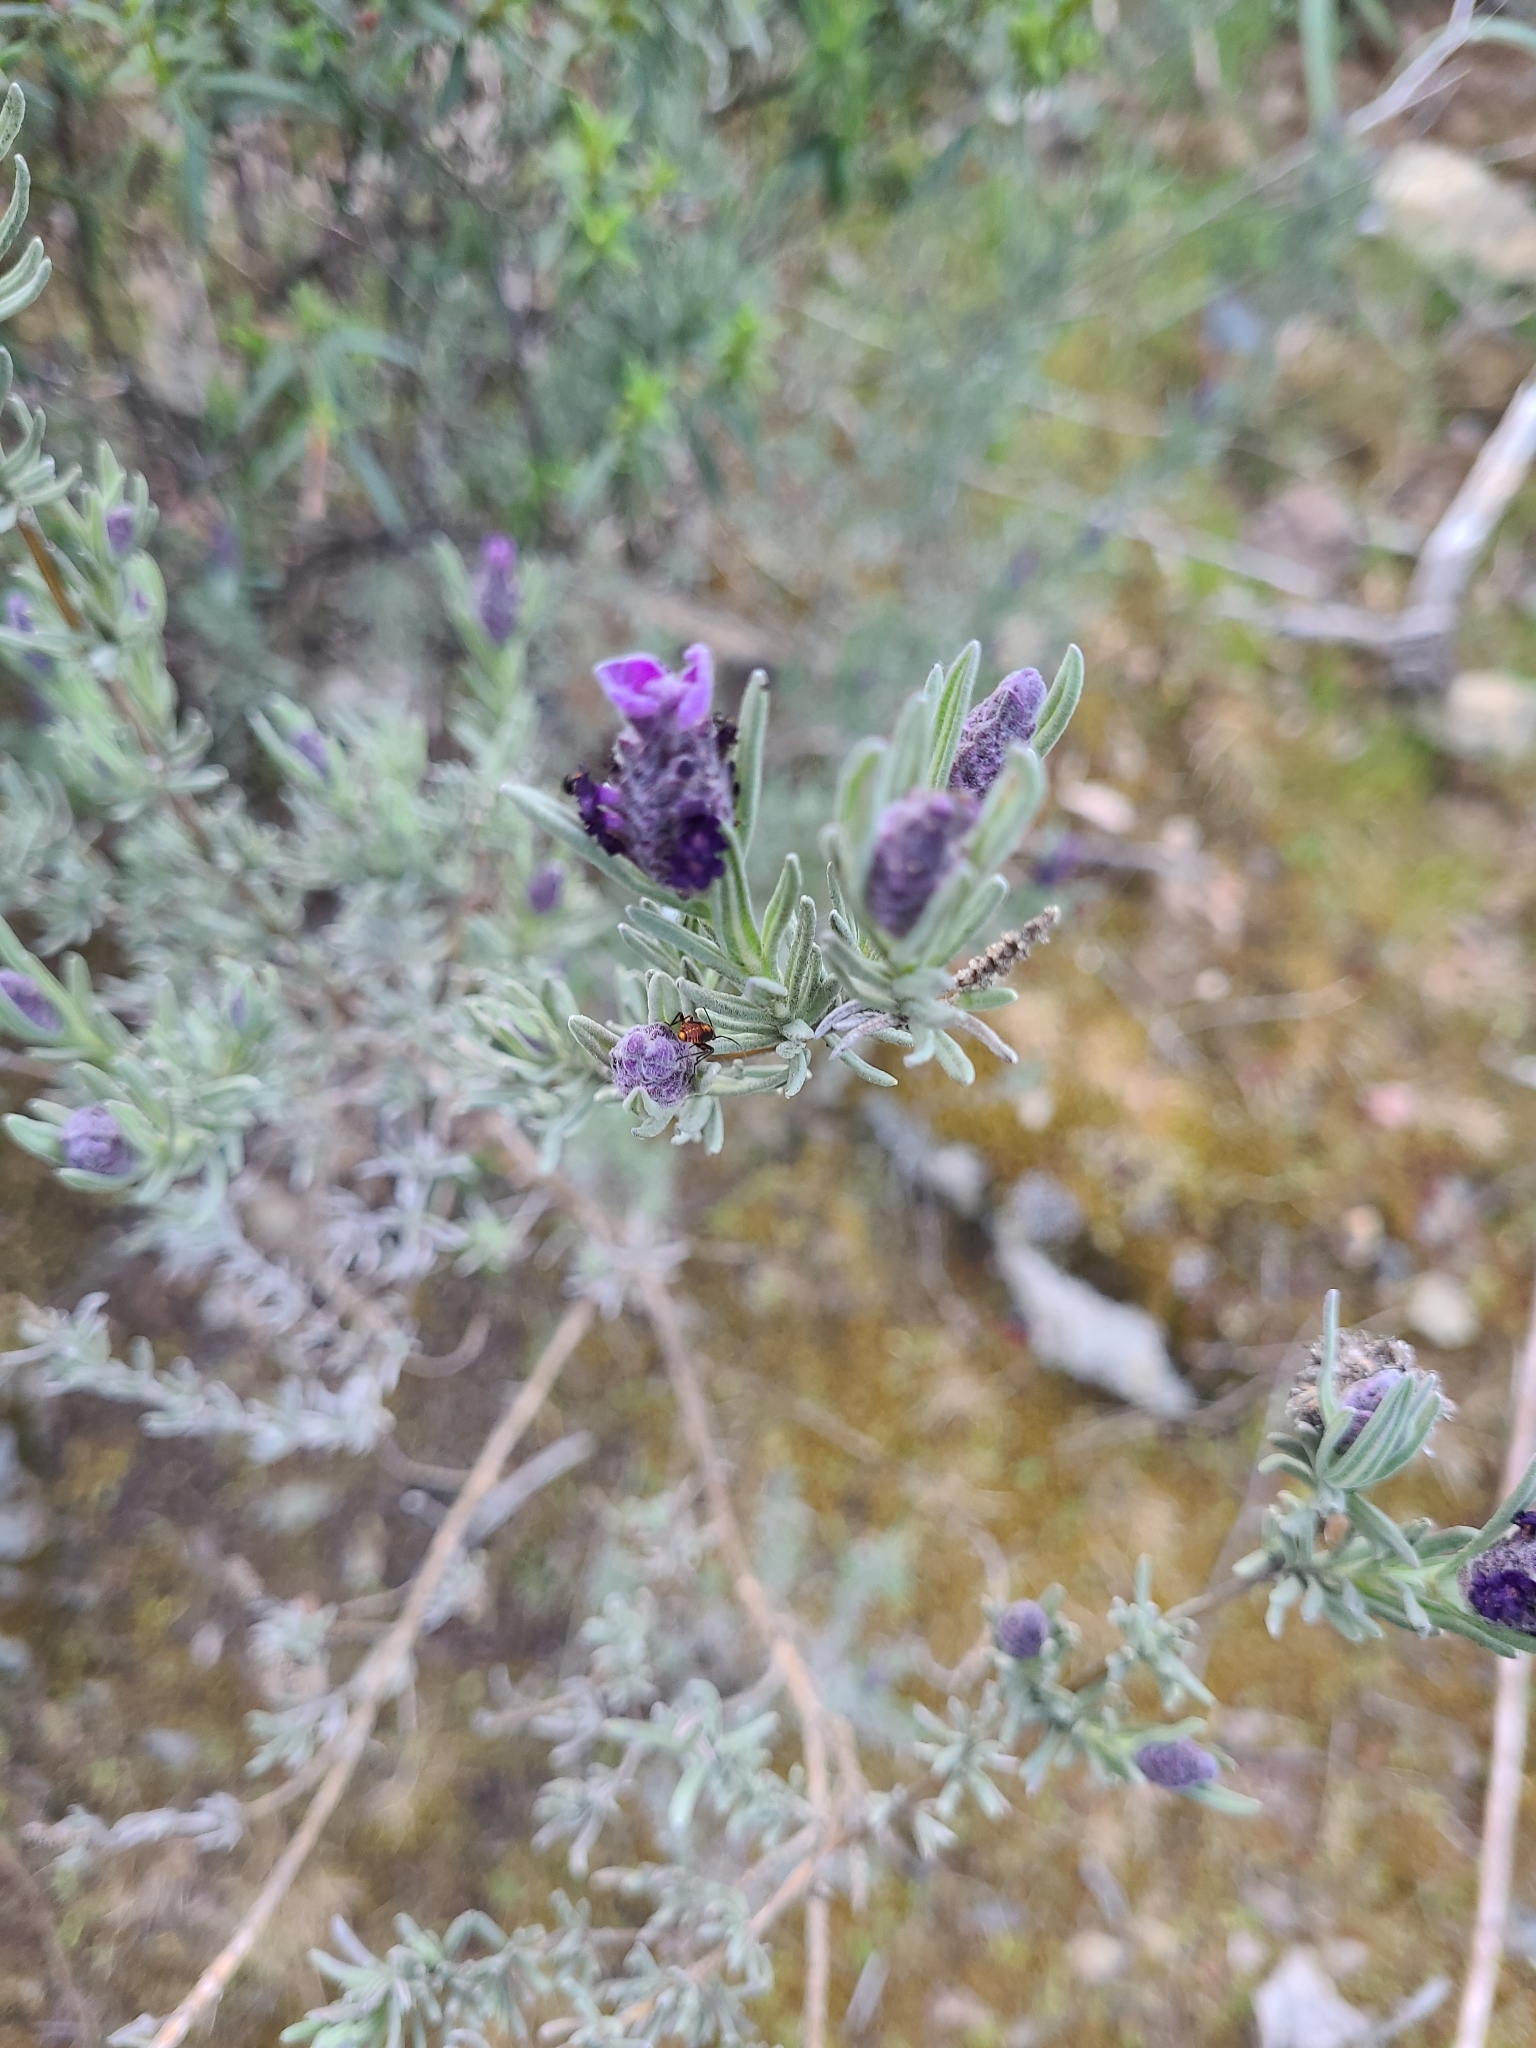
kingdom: Plantae
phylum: Tracheophyta
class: Magnoliopsida
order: Lamiales
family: Lamiaceae
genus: Lavandula
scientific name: Lavandula stoechas
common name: French lavender
